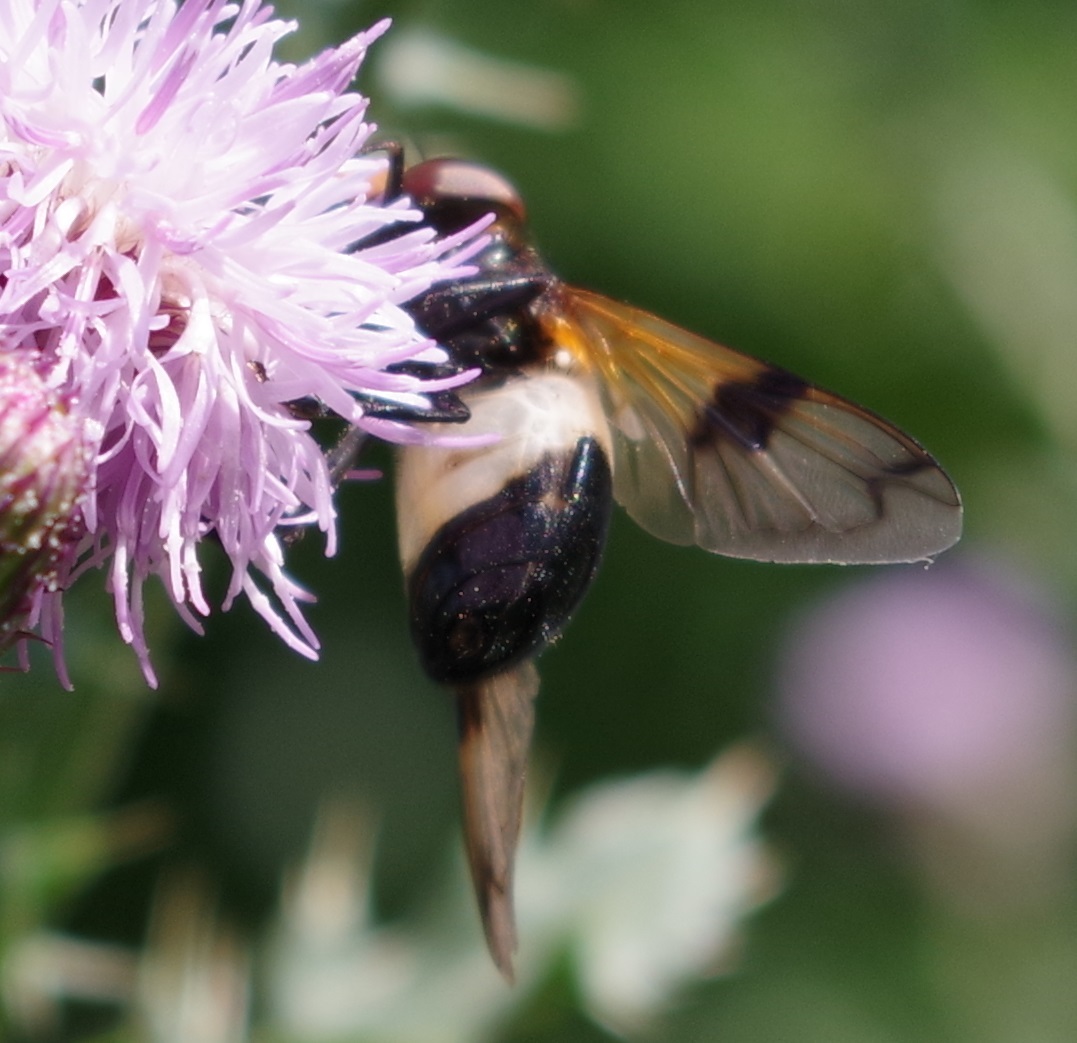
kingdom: Animalia
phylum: Arthropoda
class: Insecta
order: Diptera
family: Syrphidae
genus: Volucella
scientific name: Volucella pellucens
